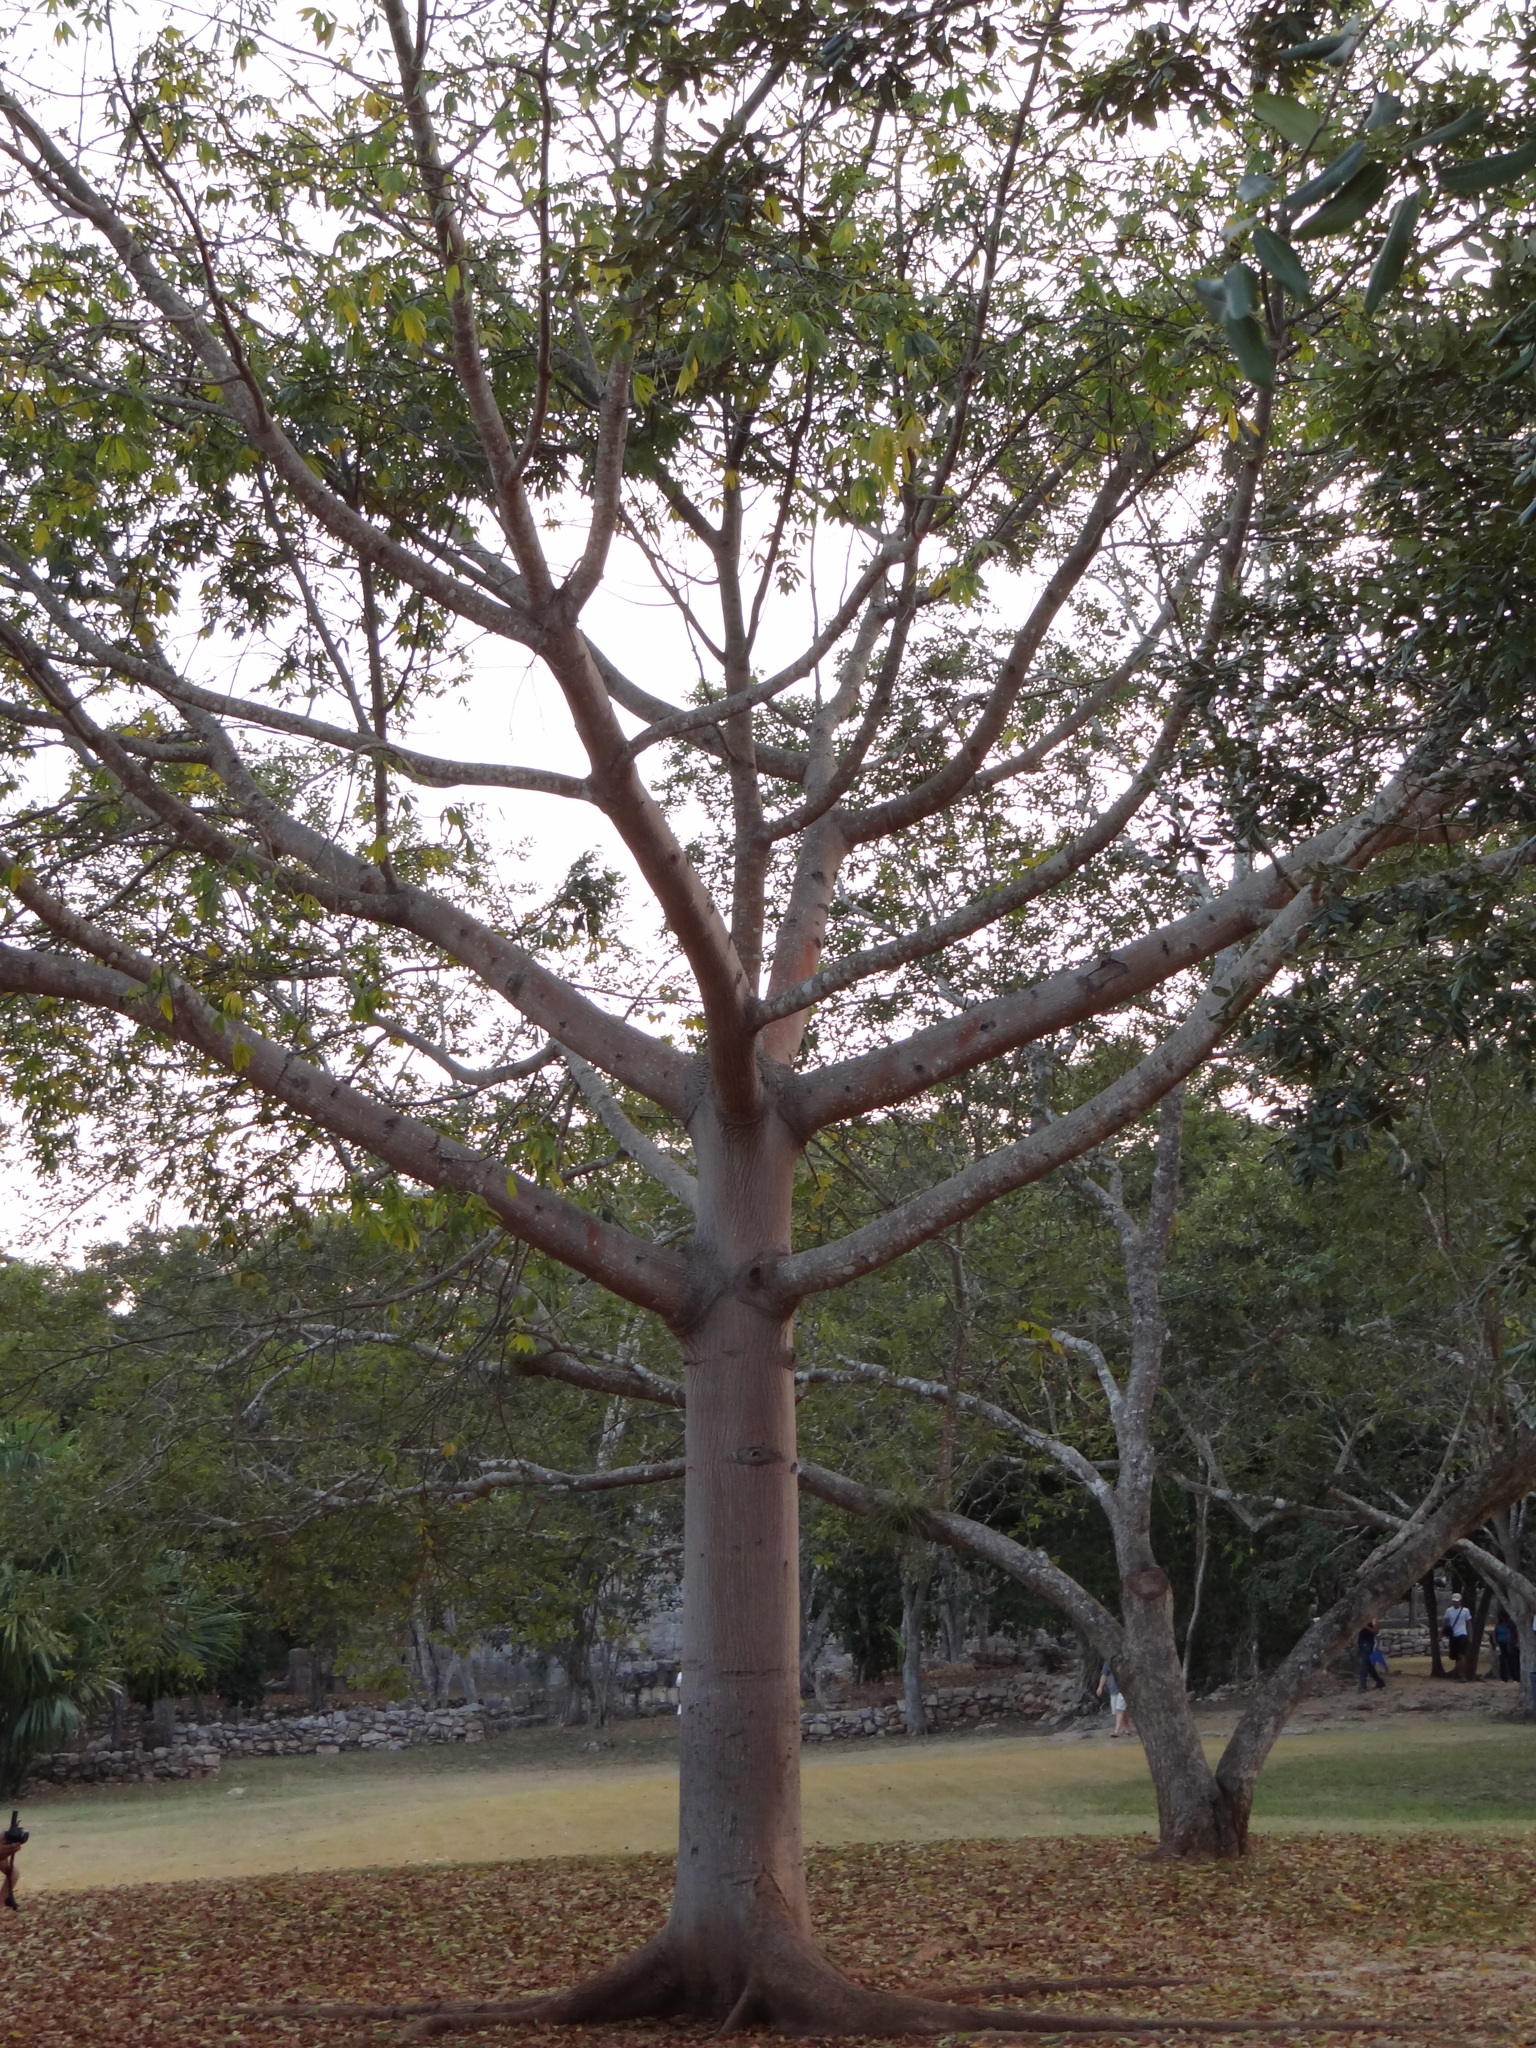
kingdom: Plantae
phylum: Tracheophyta
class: Magnoliopsida
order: Malvales
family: Malvaceae
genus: Ceiba
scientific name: Ceiba pentandra
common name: Kapok
